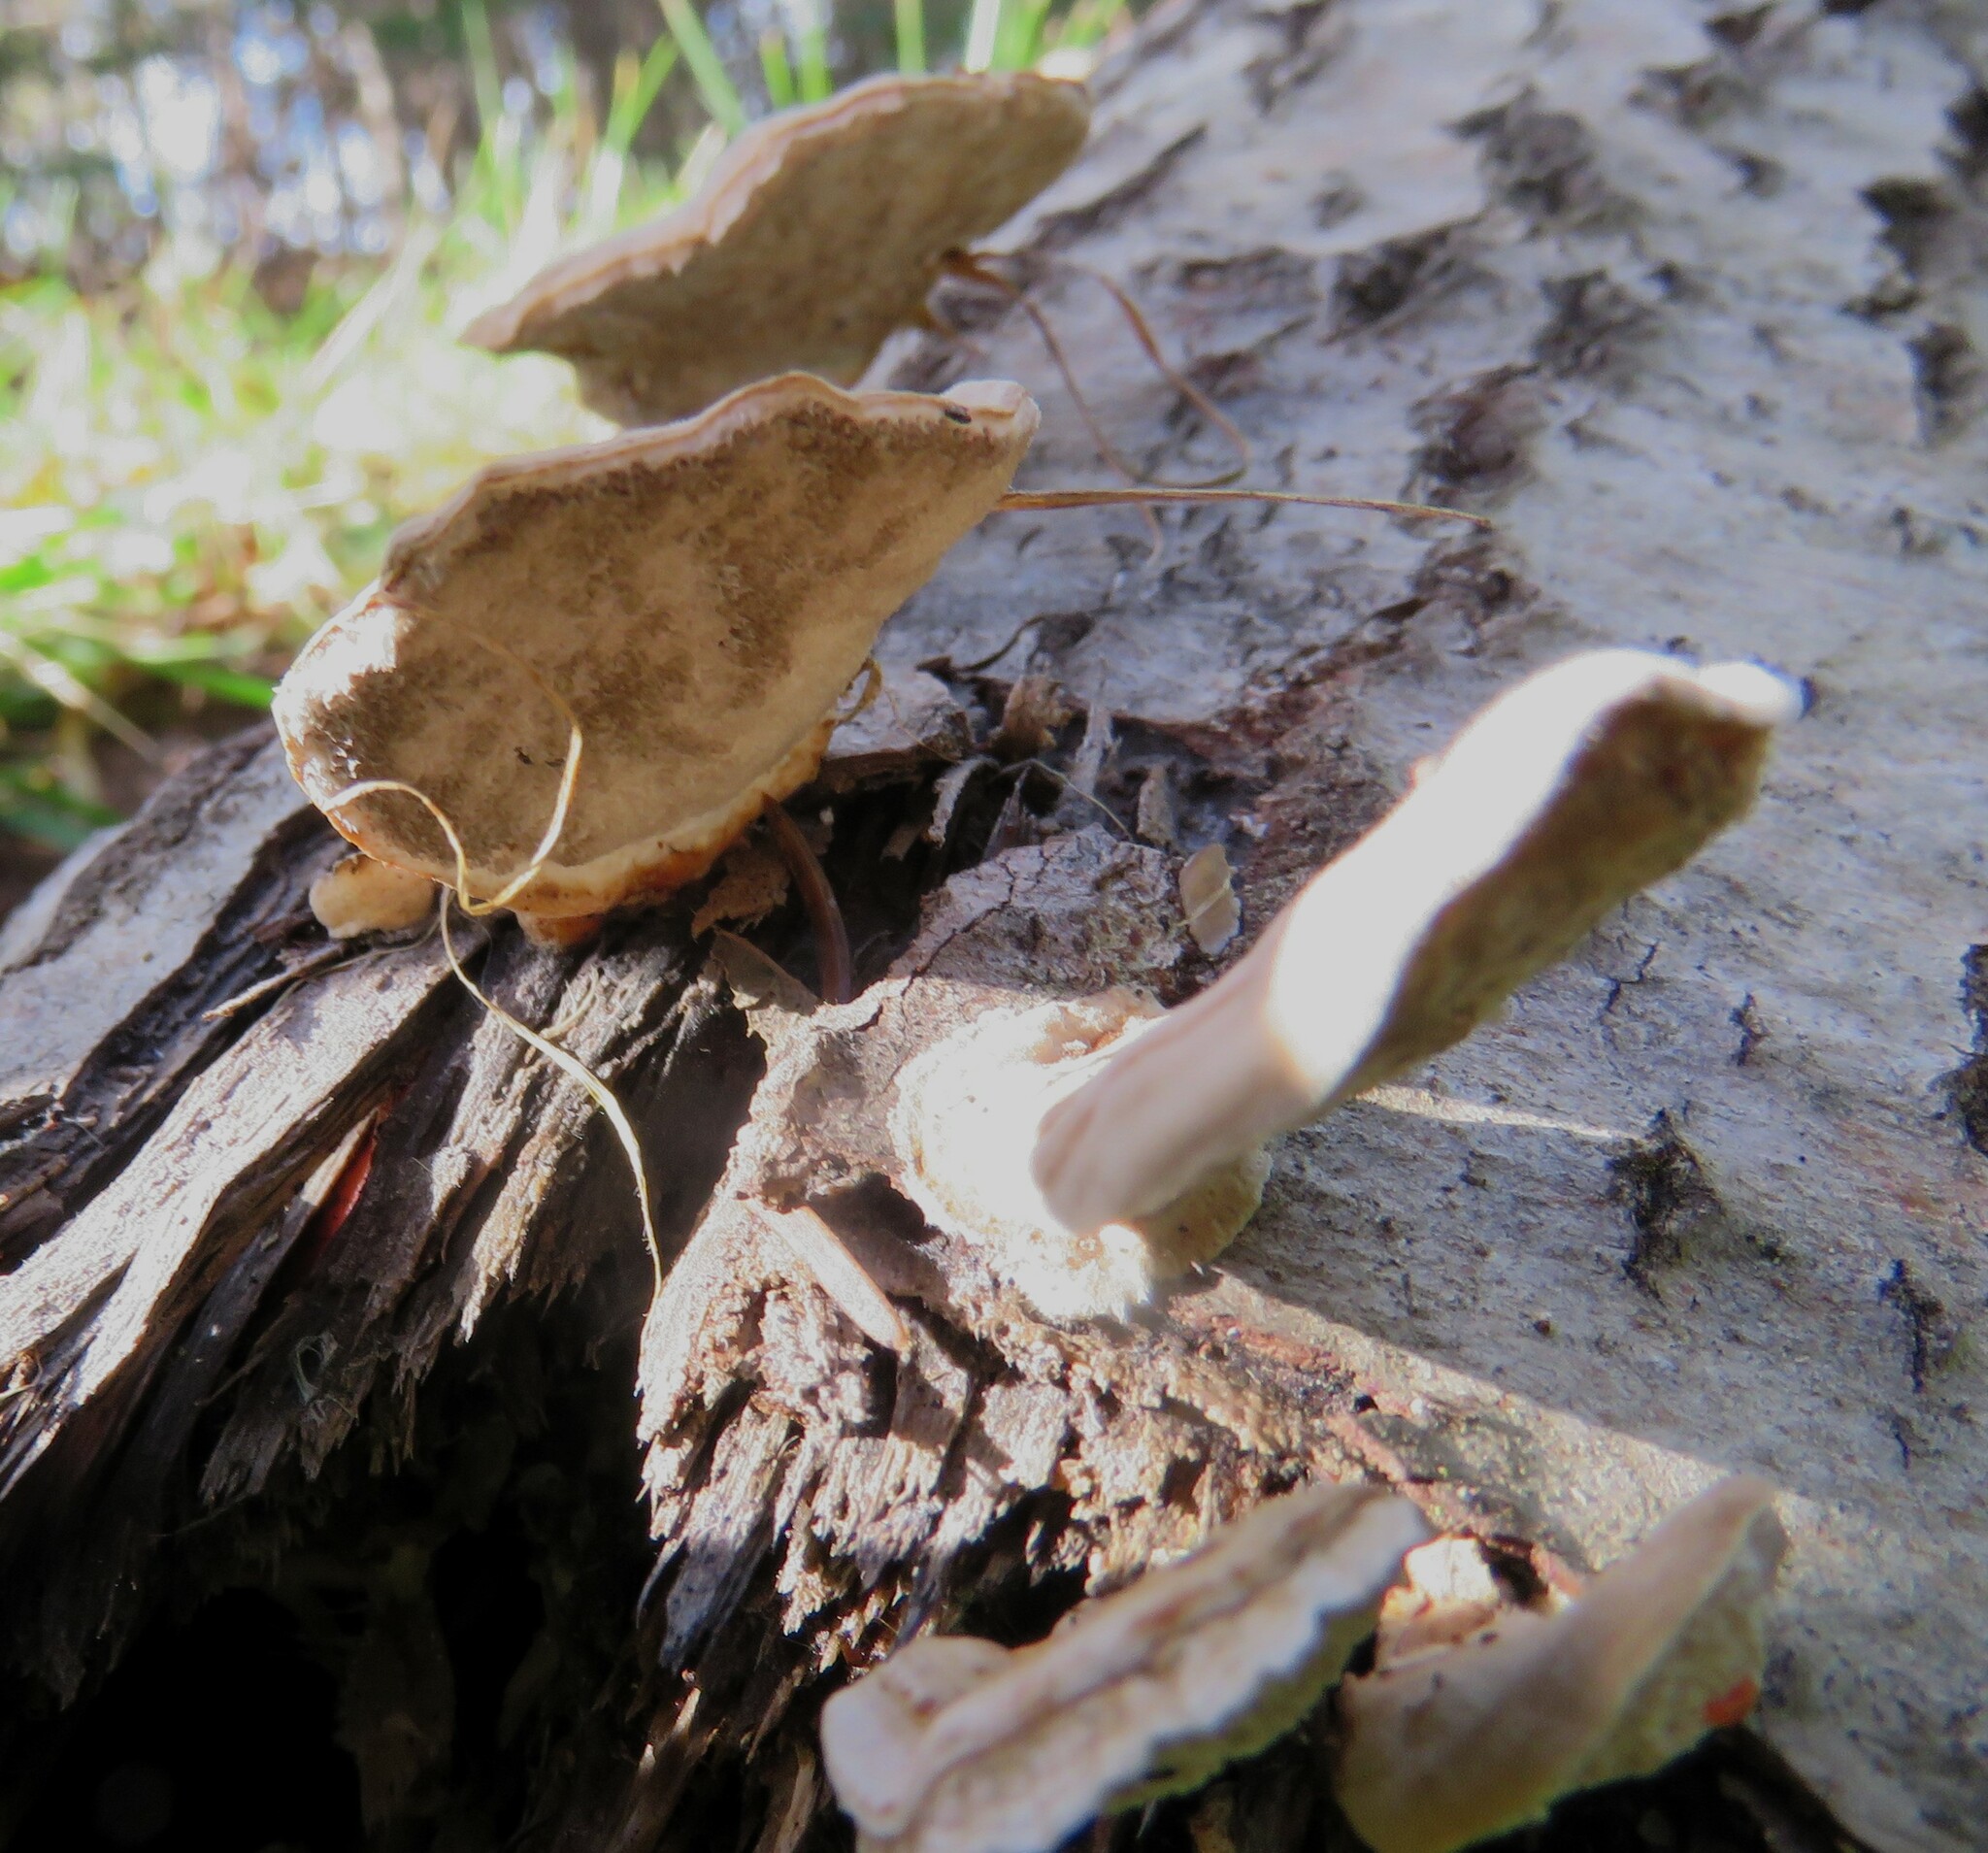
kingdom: Fungi
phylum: Basidiomycota
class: Agaricomycetes
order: Polyporales
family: Polyporaceae
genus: Trametes
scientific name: Trametes ochracea
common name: Ochre bracket
